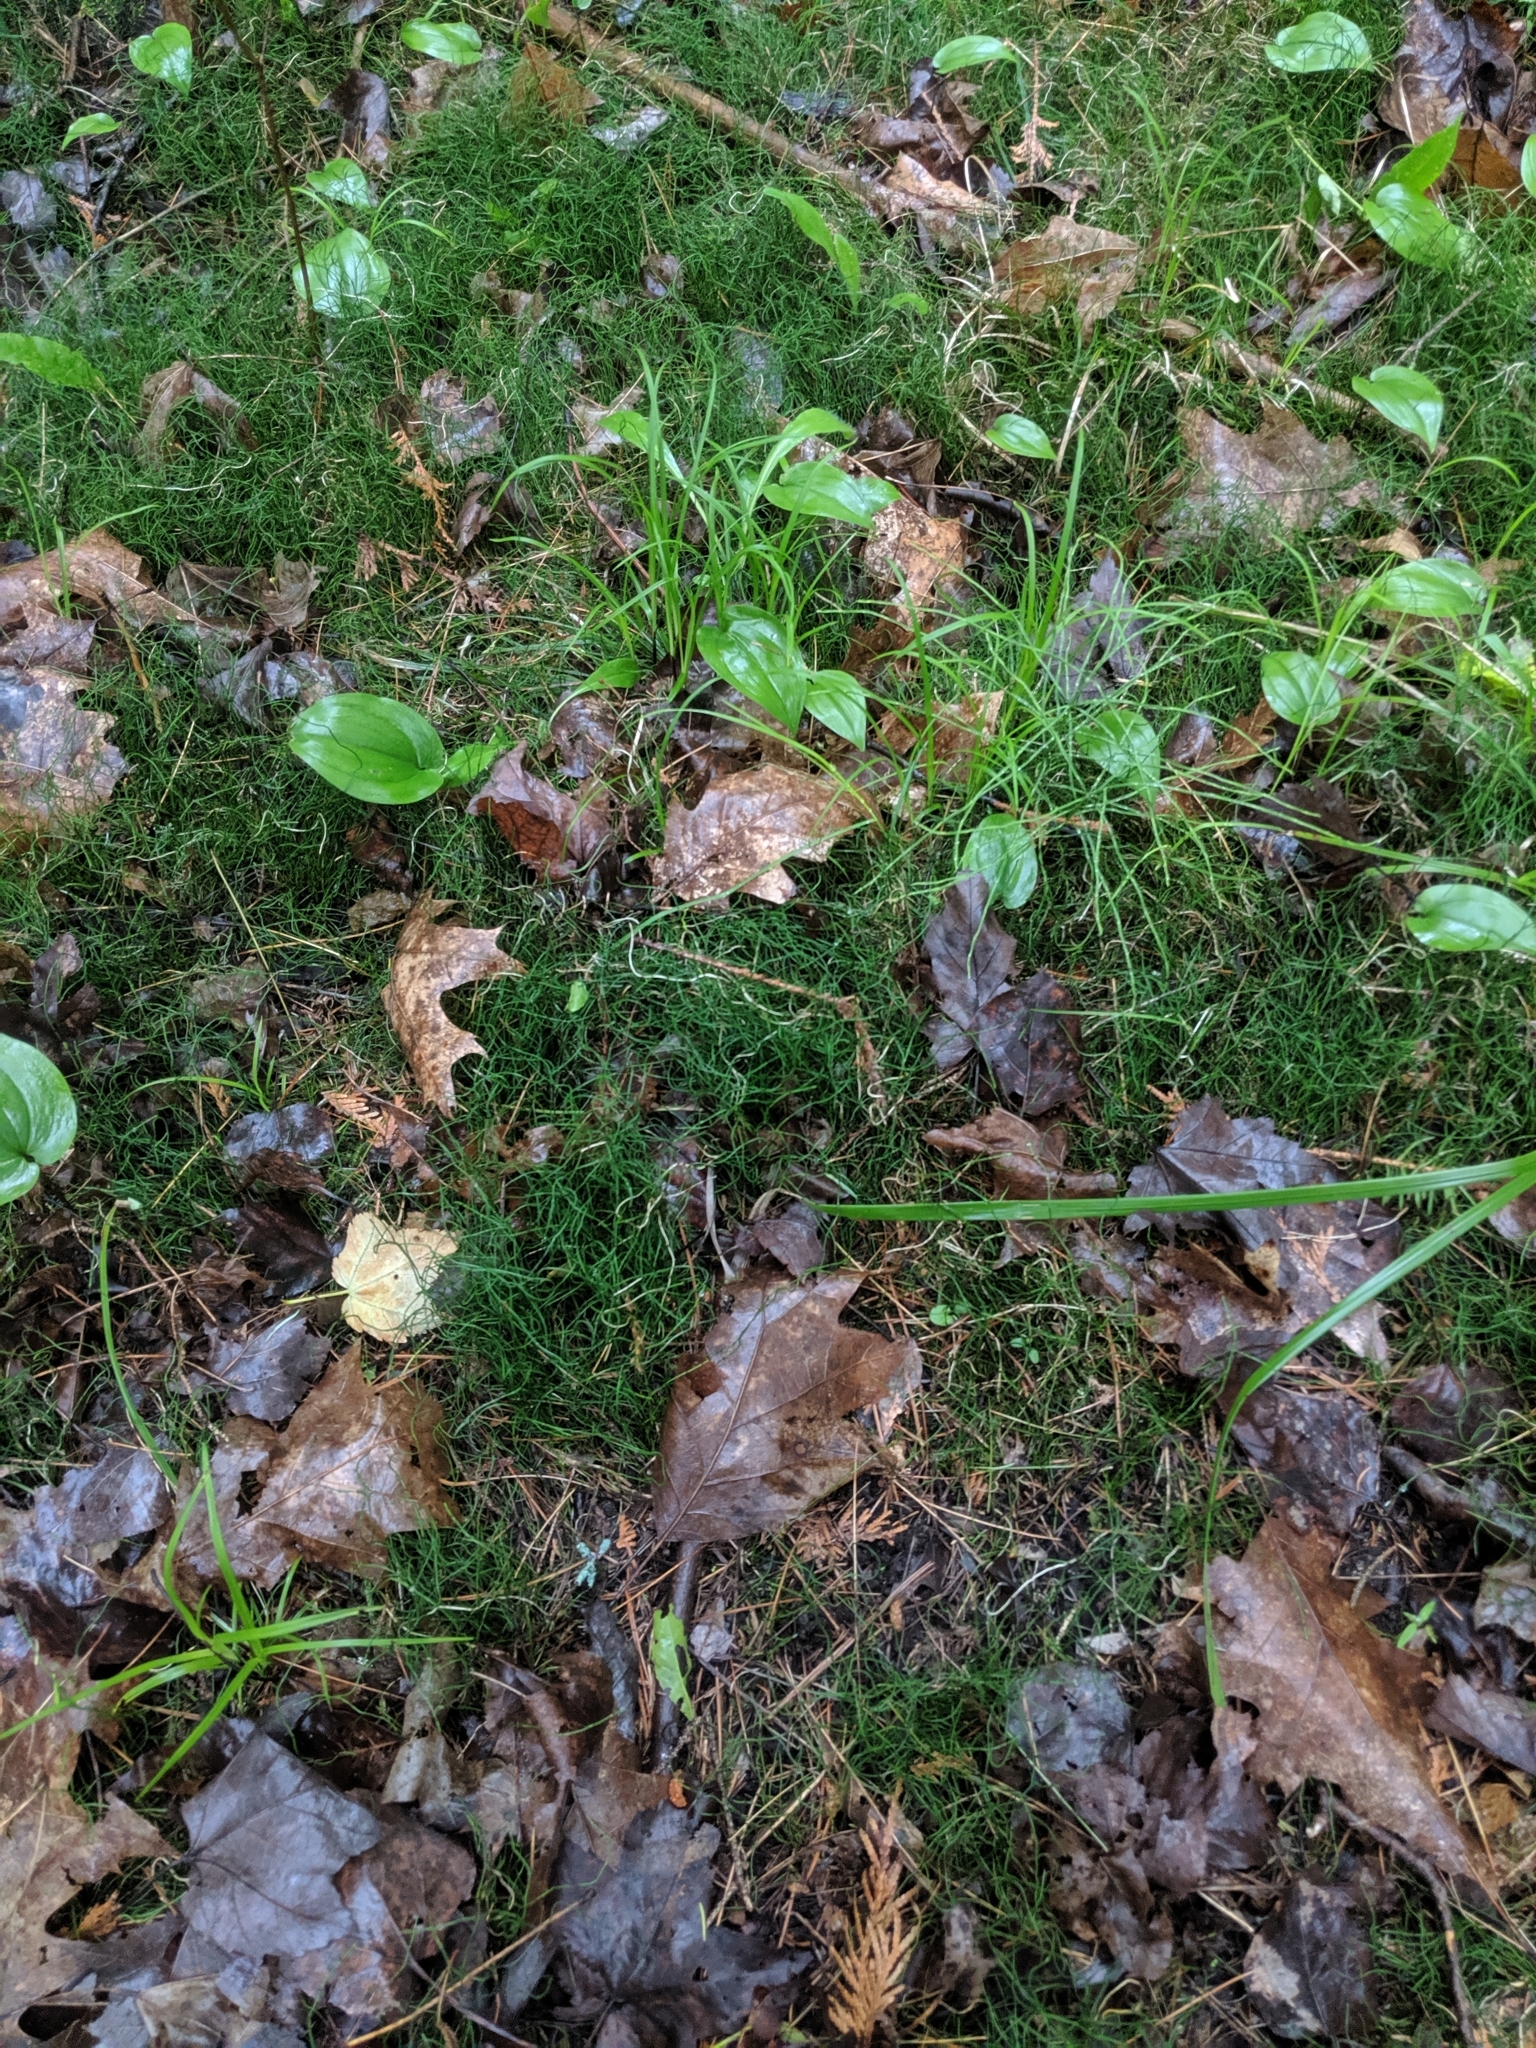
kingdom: Plantae
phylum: Tracheophyta
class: Polypodiopsida
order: Equisetales
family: Equisetaceae
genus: Equisetum
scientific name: Equisetum scirpoides
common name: Delicate horsetail
